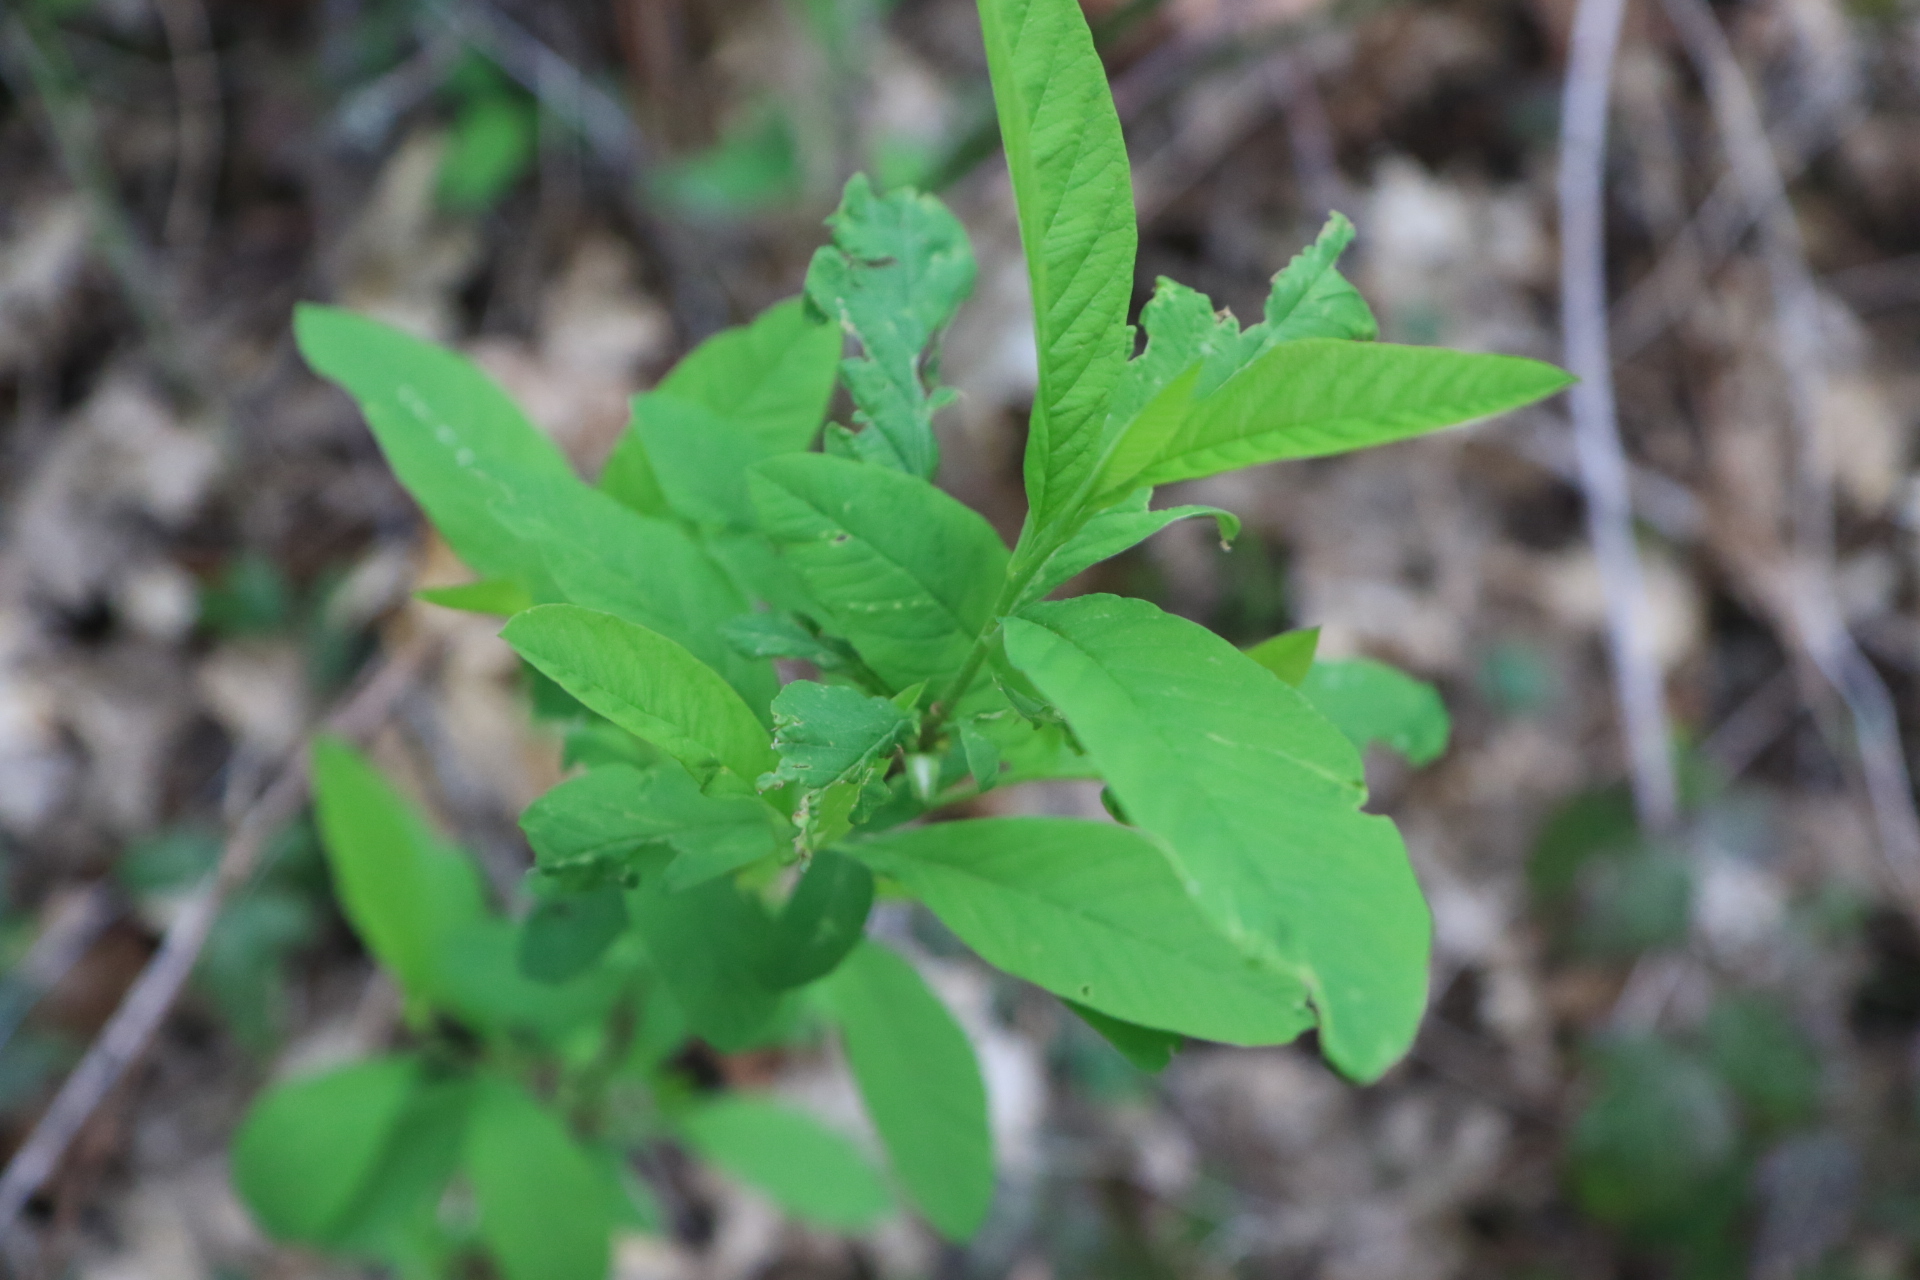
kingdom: Plantae
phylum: Tracheophyta
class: Magnoliopsida
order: Rosales
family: Rosaceae
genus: Oemleria
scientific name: Oemleria cerasiformis
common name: Osoberry
